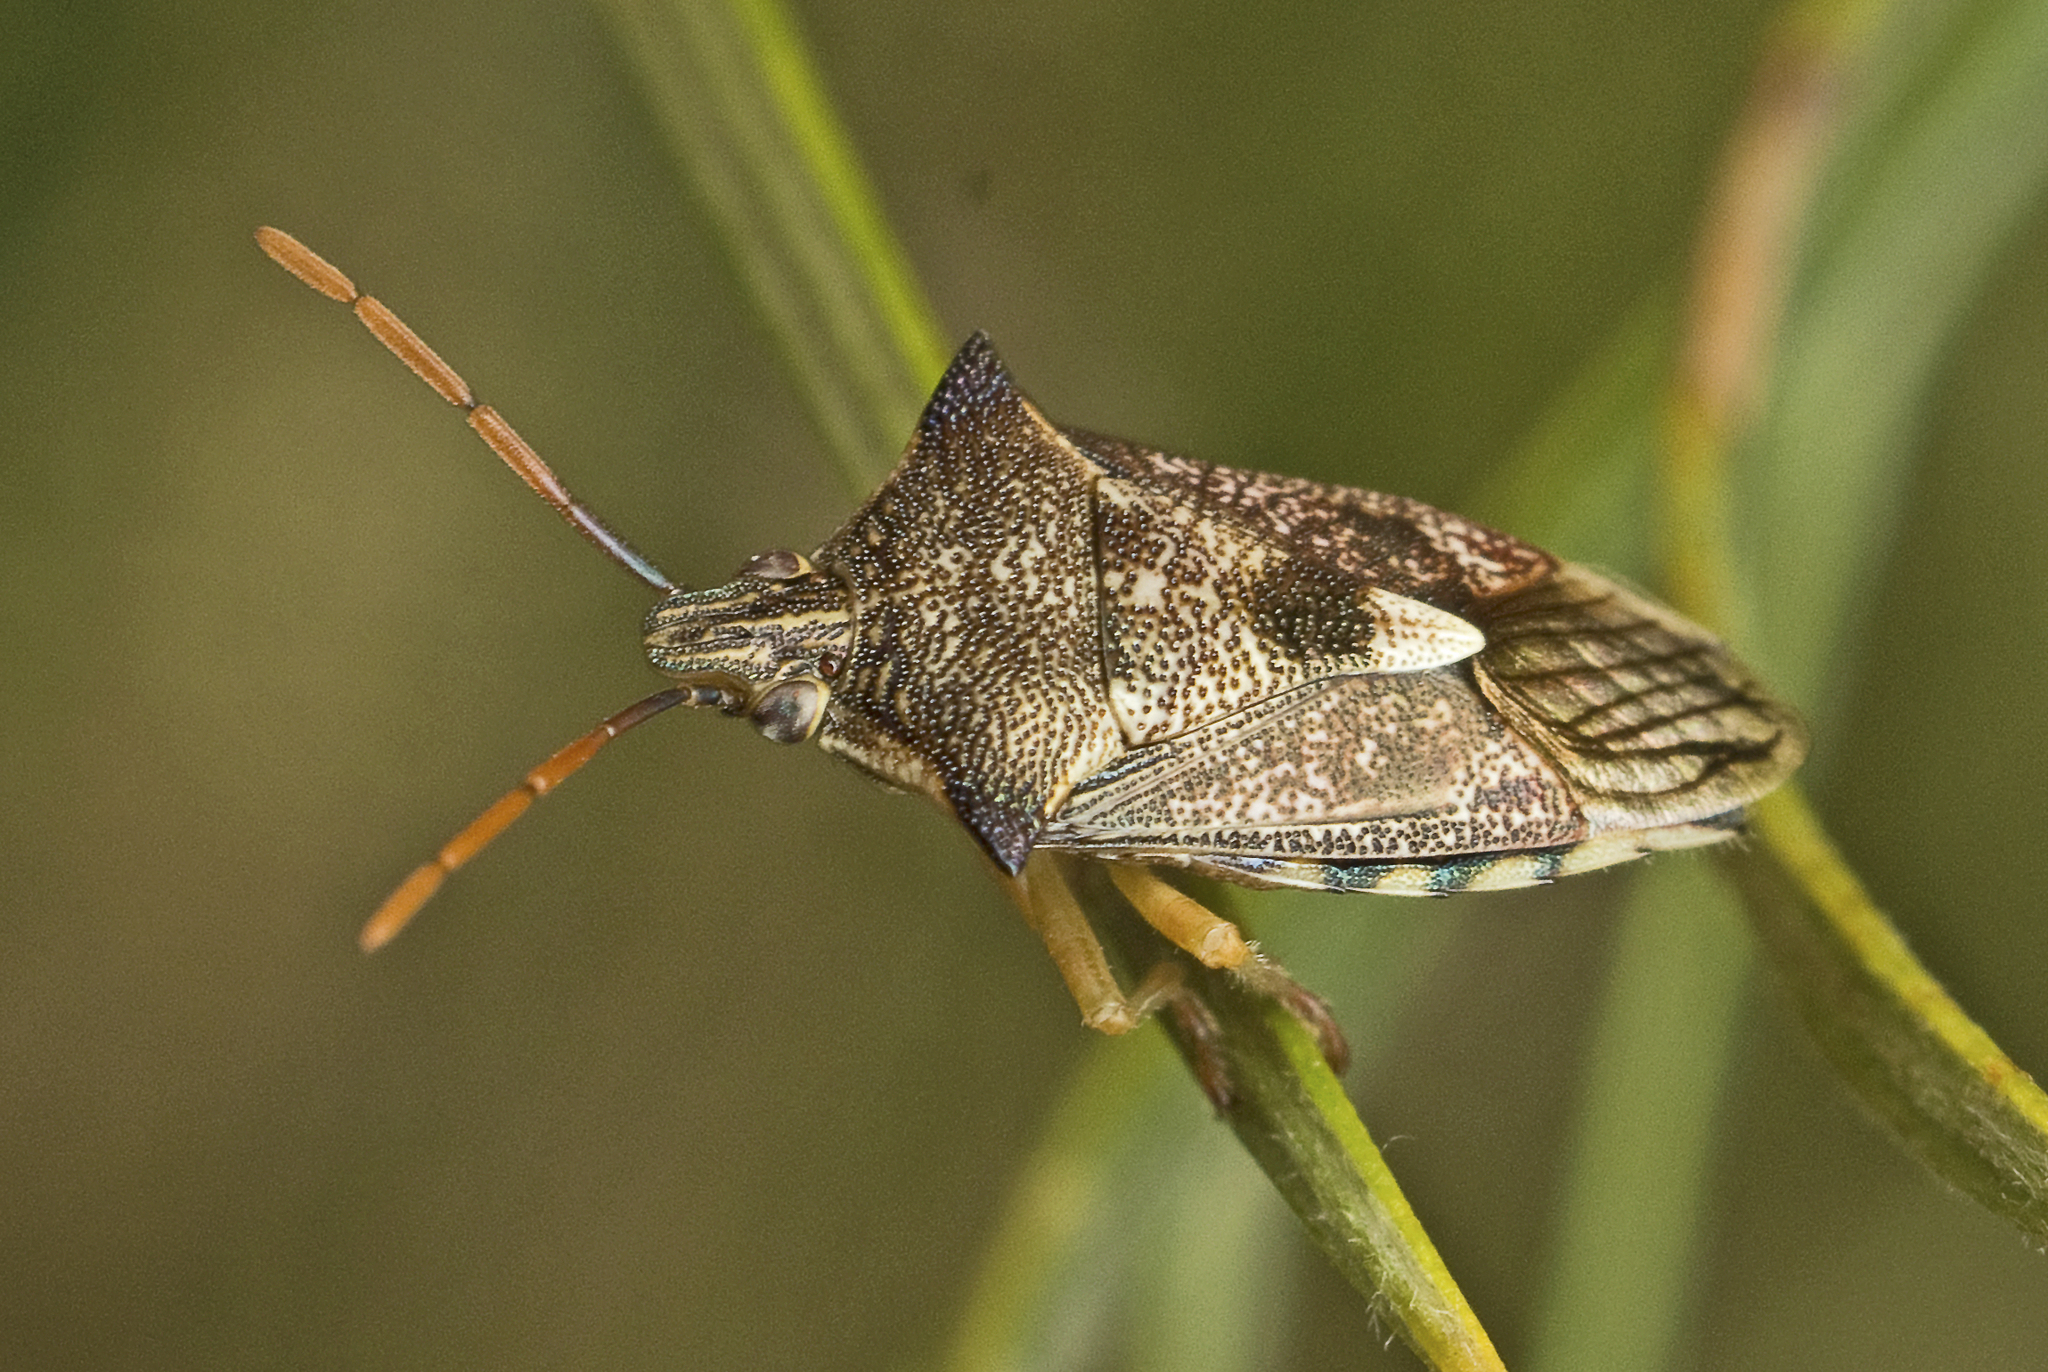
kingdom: Animalia
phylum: Arthropoda
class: Insecta
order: Hemiptera
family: Pentatomidae
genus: Oechalia
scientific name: Oechalia schellenbergii
